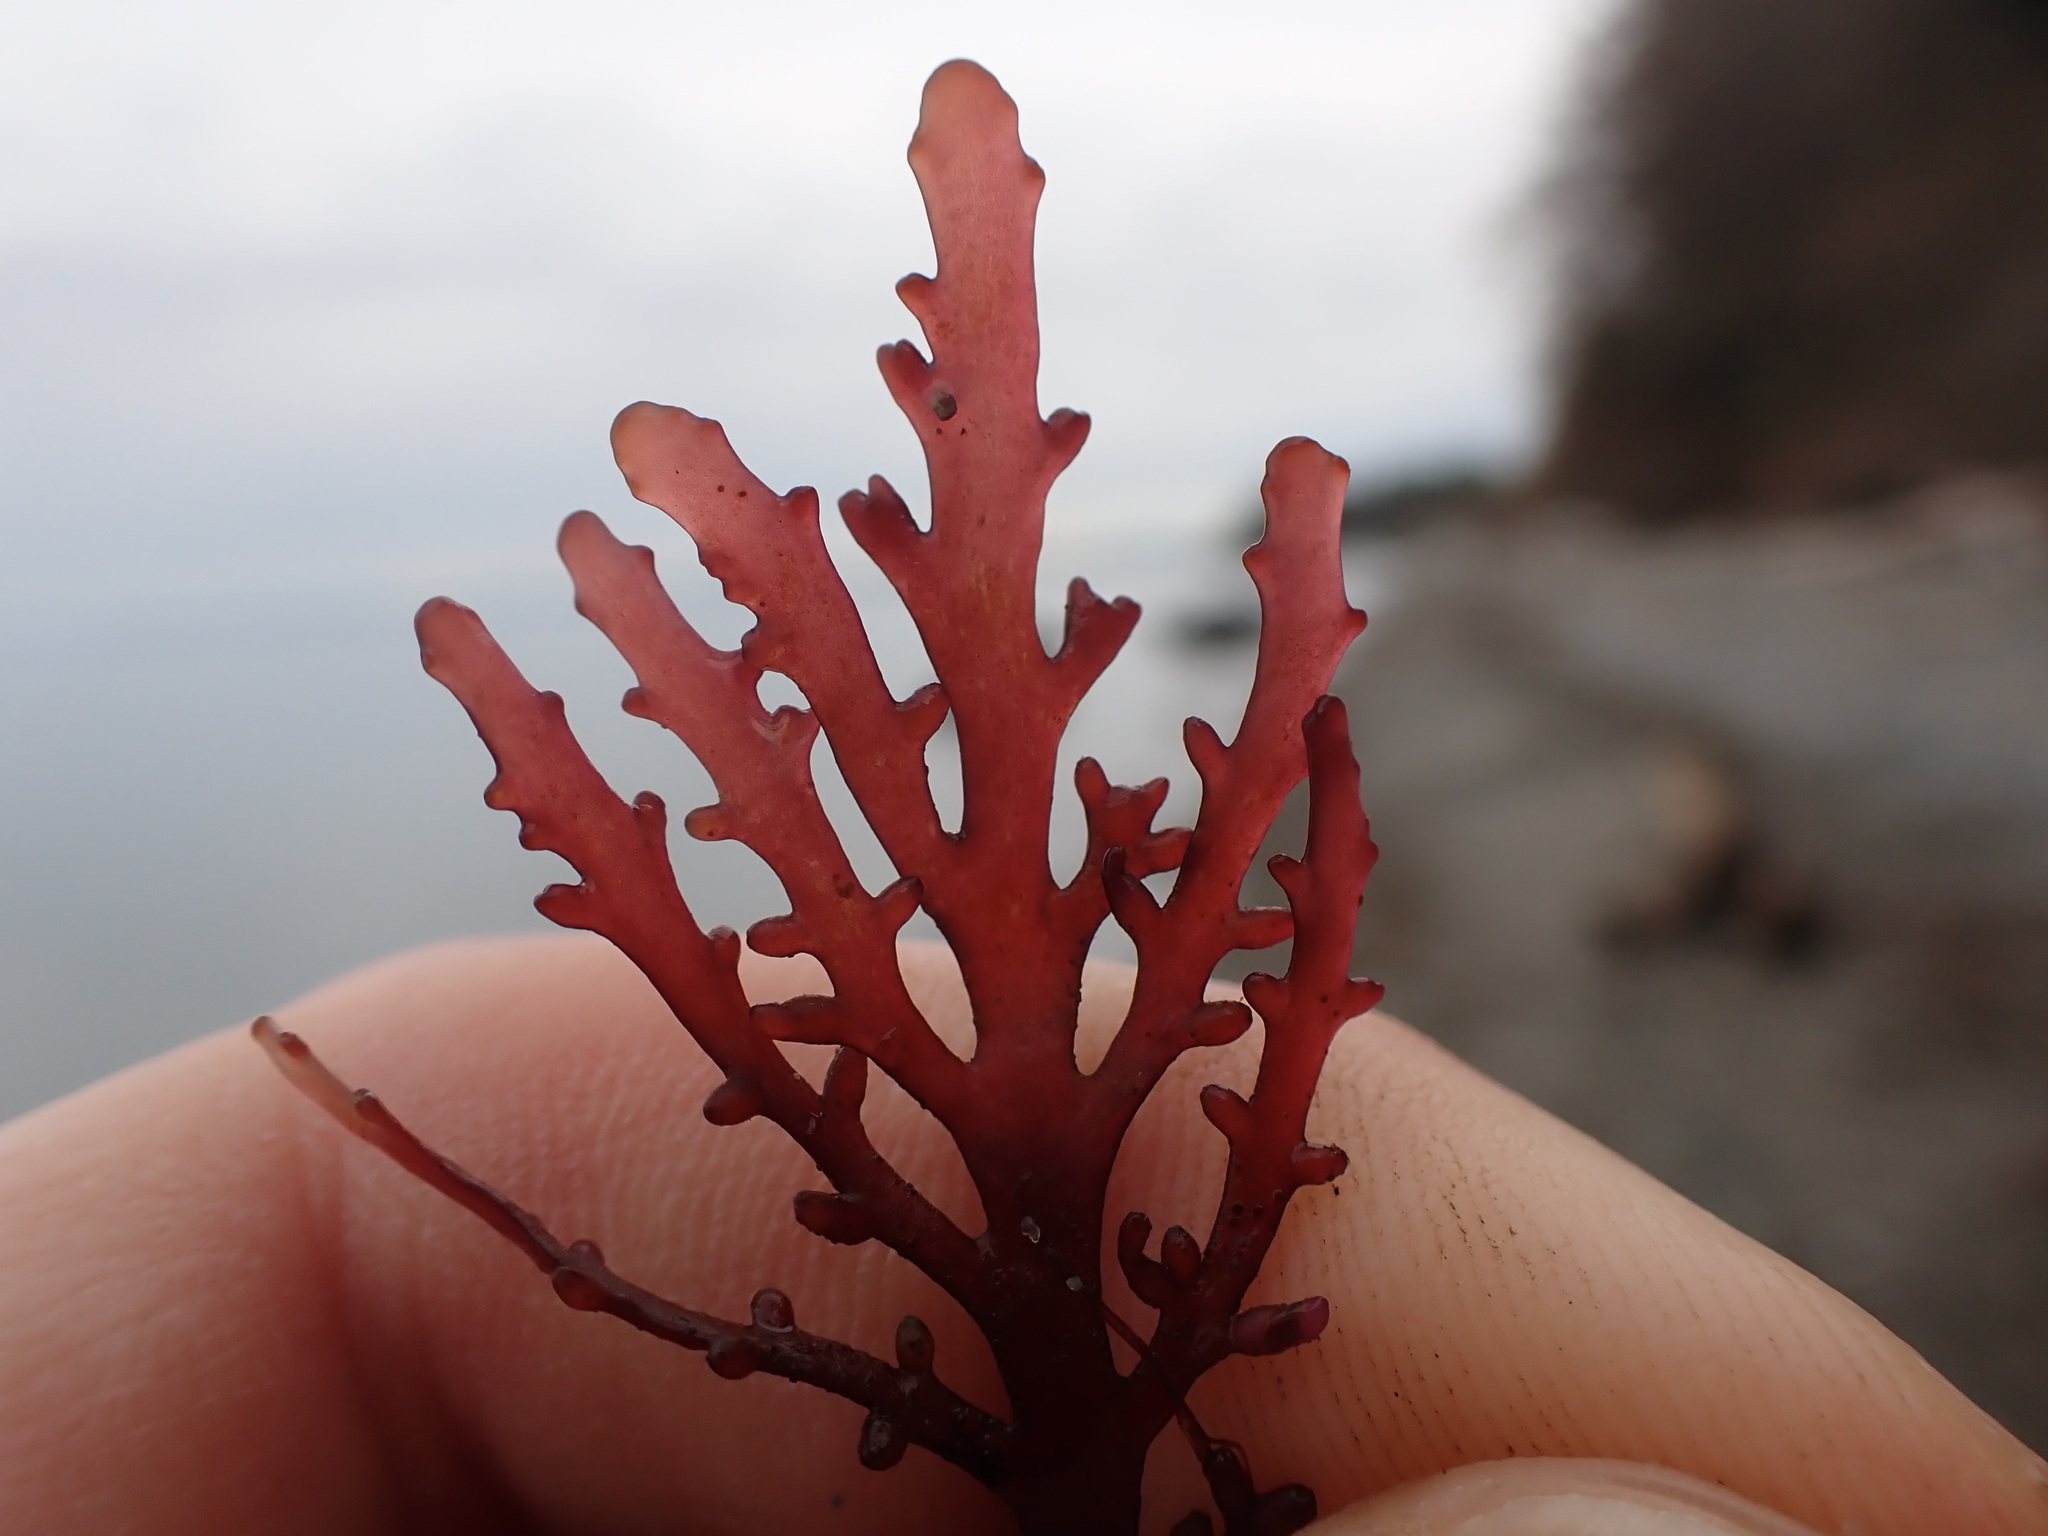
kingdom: Plantae
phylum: Rhodophyta
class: Florideophyceae
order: Ceramiales
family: Rhodomelaceae
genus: Osmundea
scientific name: Osmundea spectabilis
